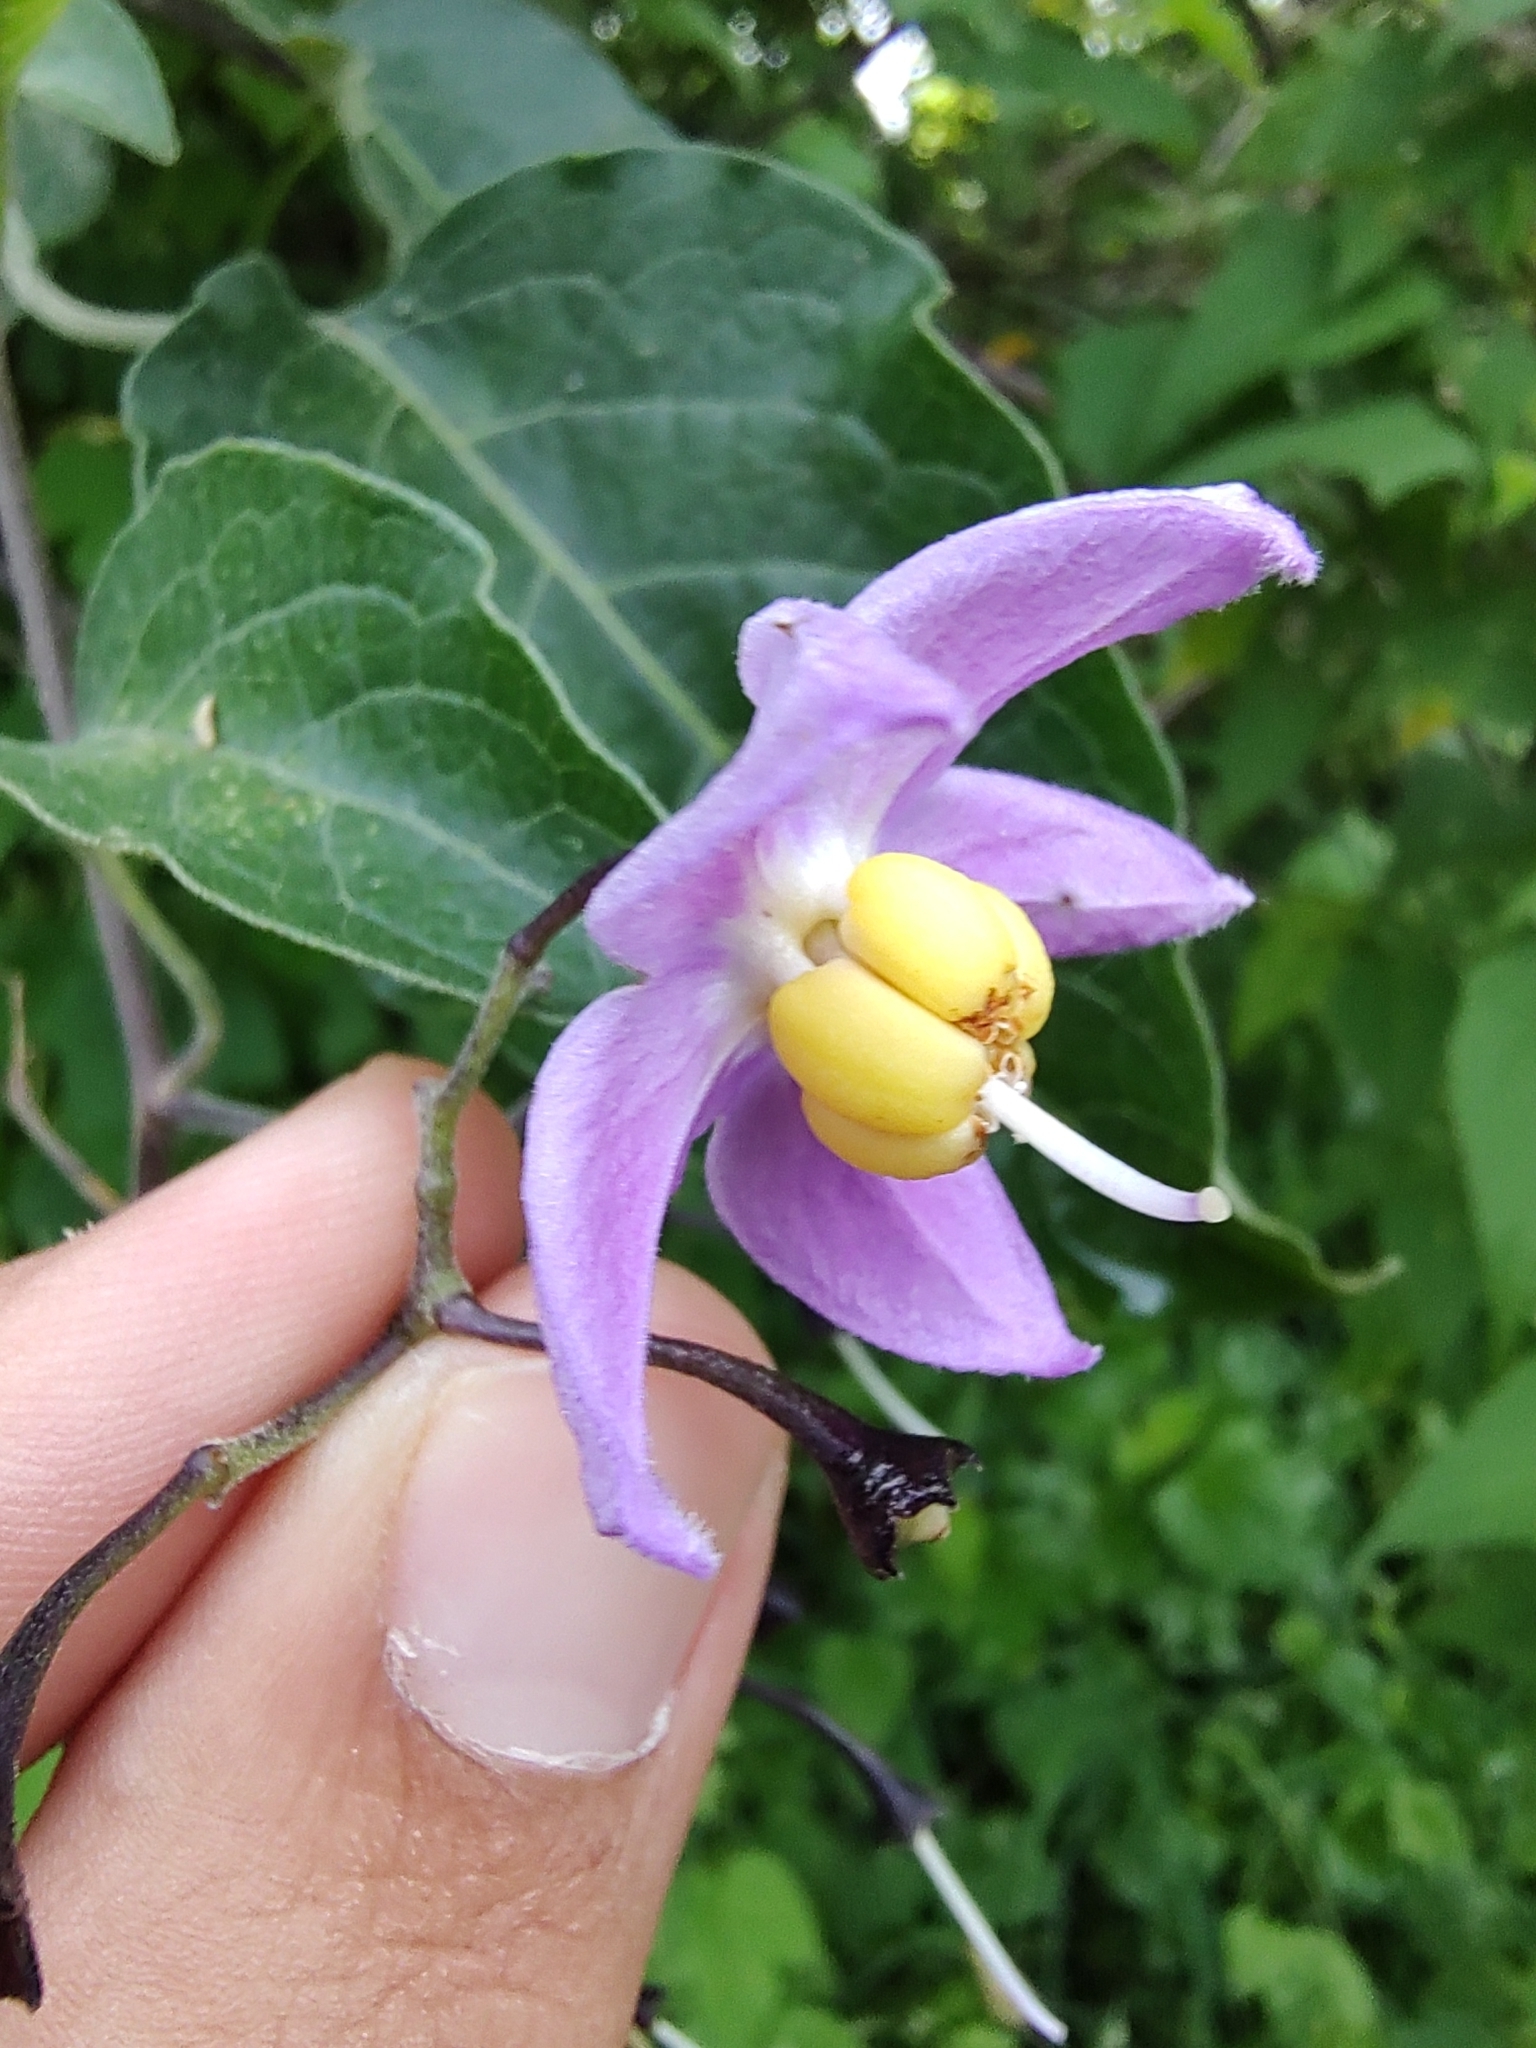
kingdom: Plantae
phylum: Tracheophyta
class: Magnoliopsida
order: Solanales
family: Solanaceae
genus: Solanum
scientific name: Solanum dulcamaroides
